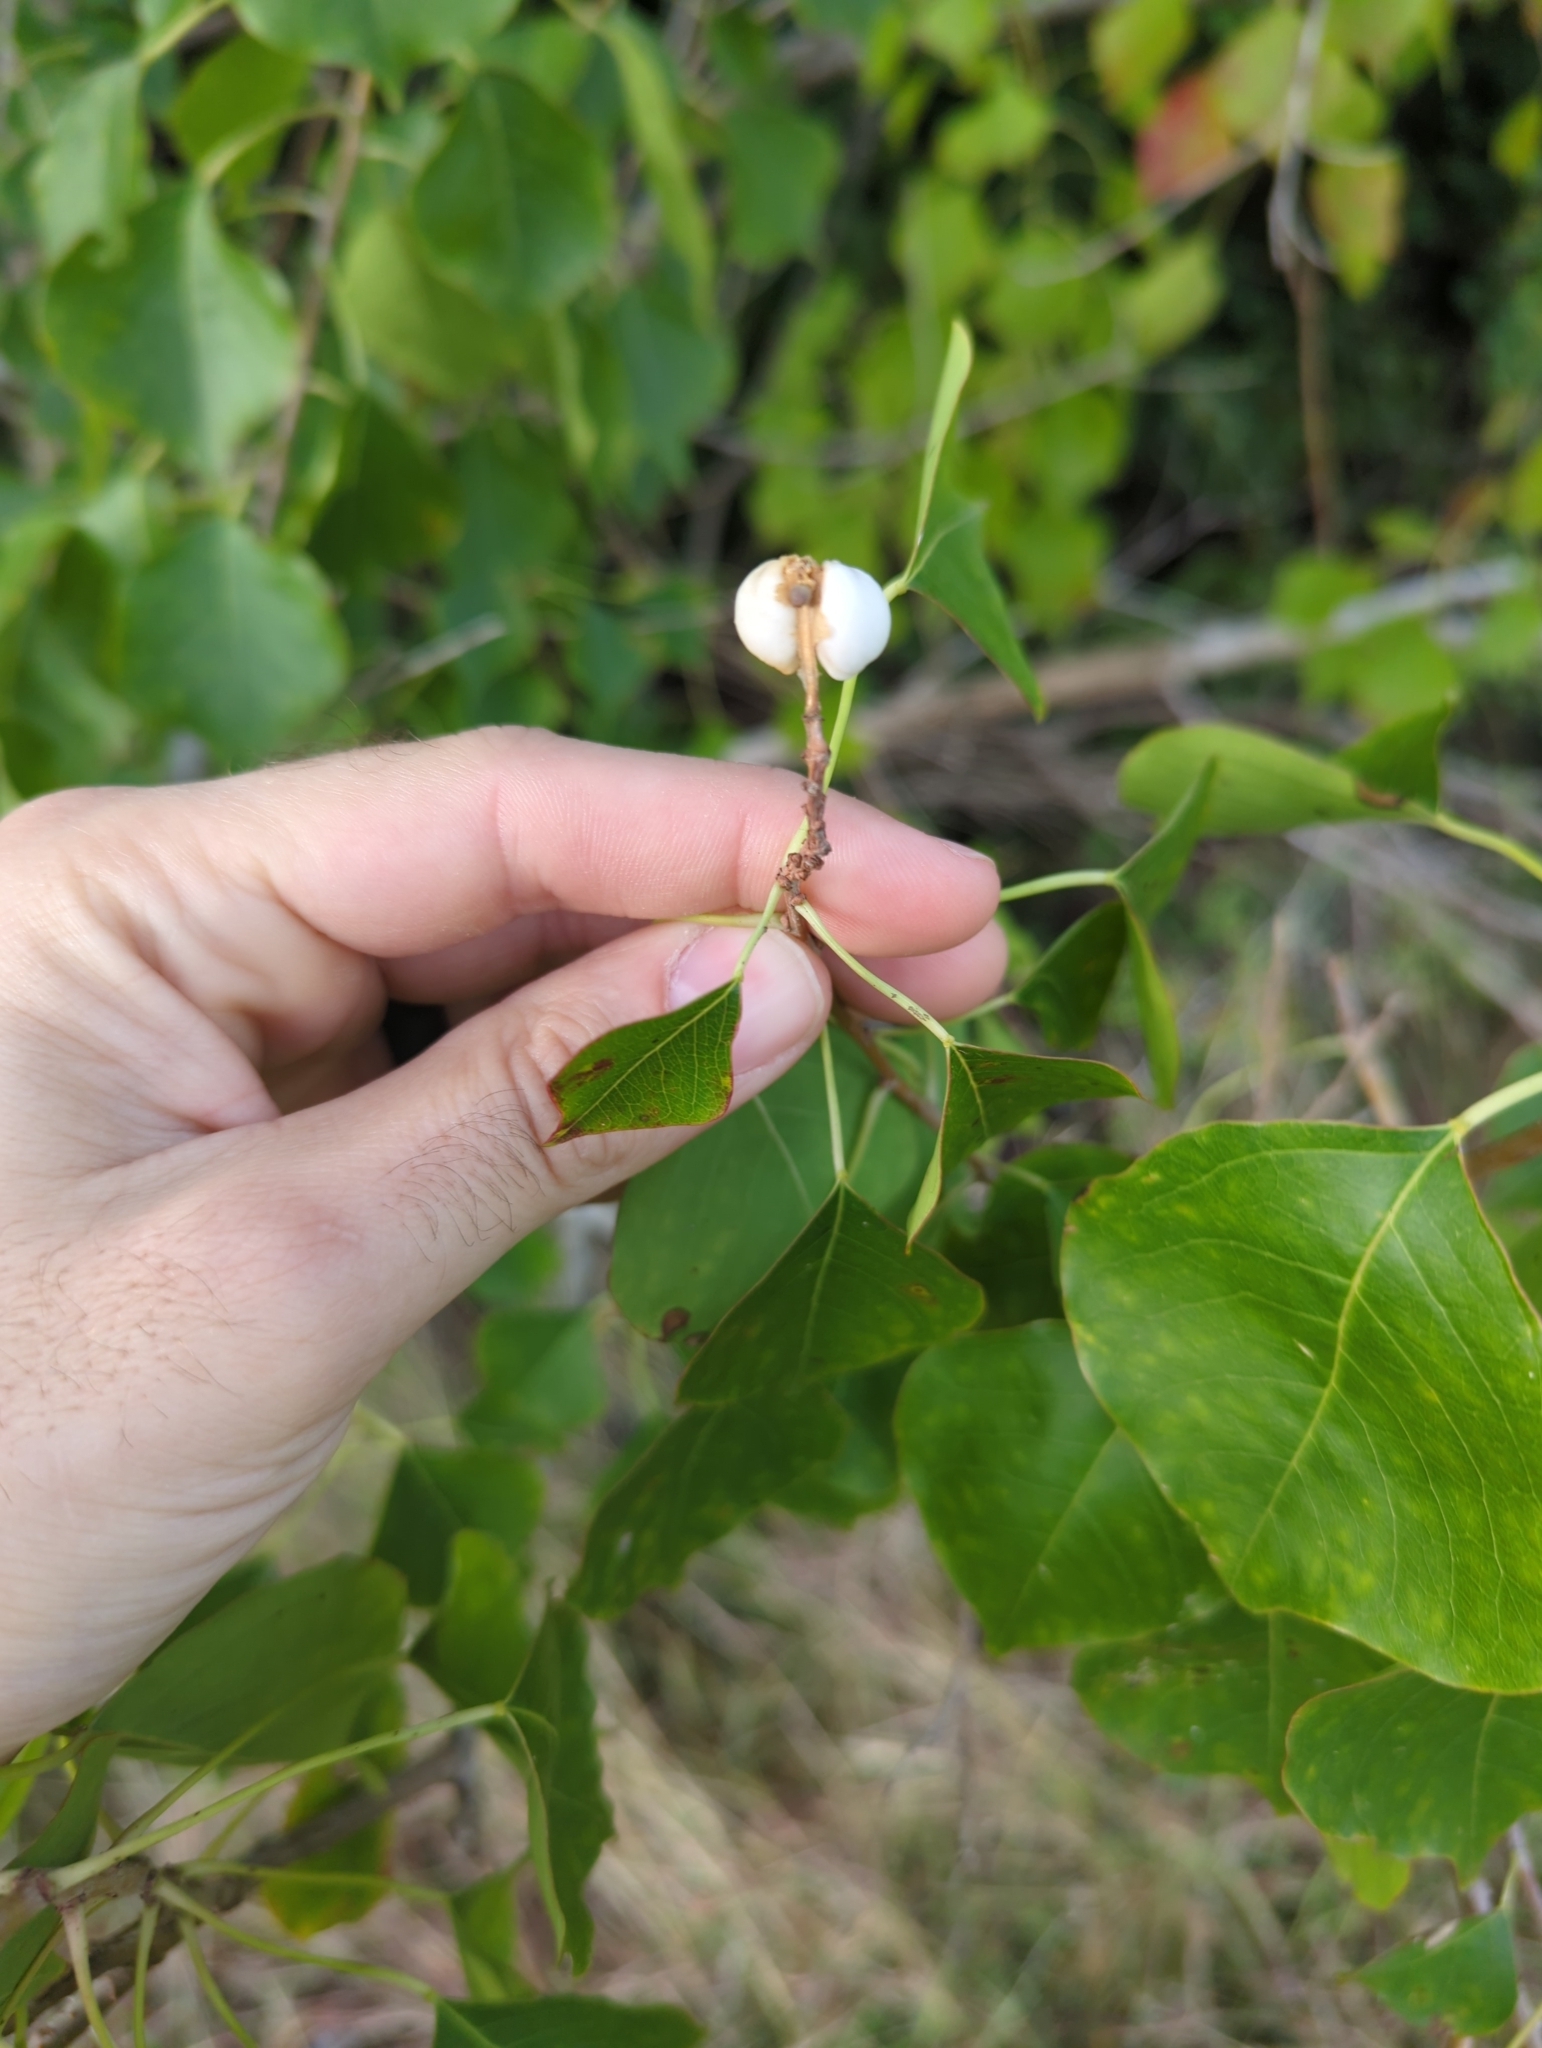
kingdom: Plantae
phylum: Tracheophyta
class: Magnoliopsida
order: Malpighiales
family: Euphorbiaceae
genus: Triadica
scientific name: Triadica sebifera
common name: Chinese tallow
